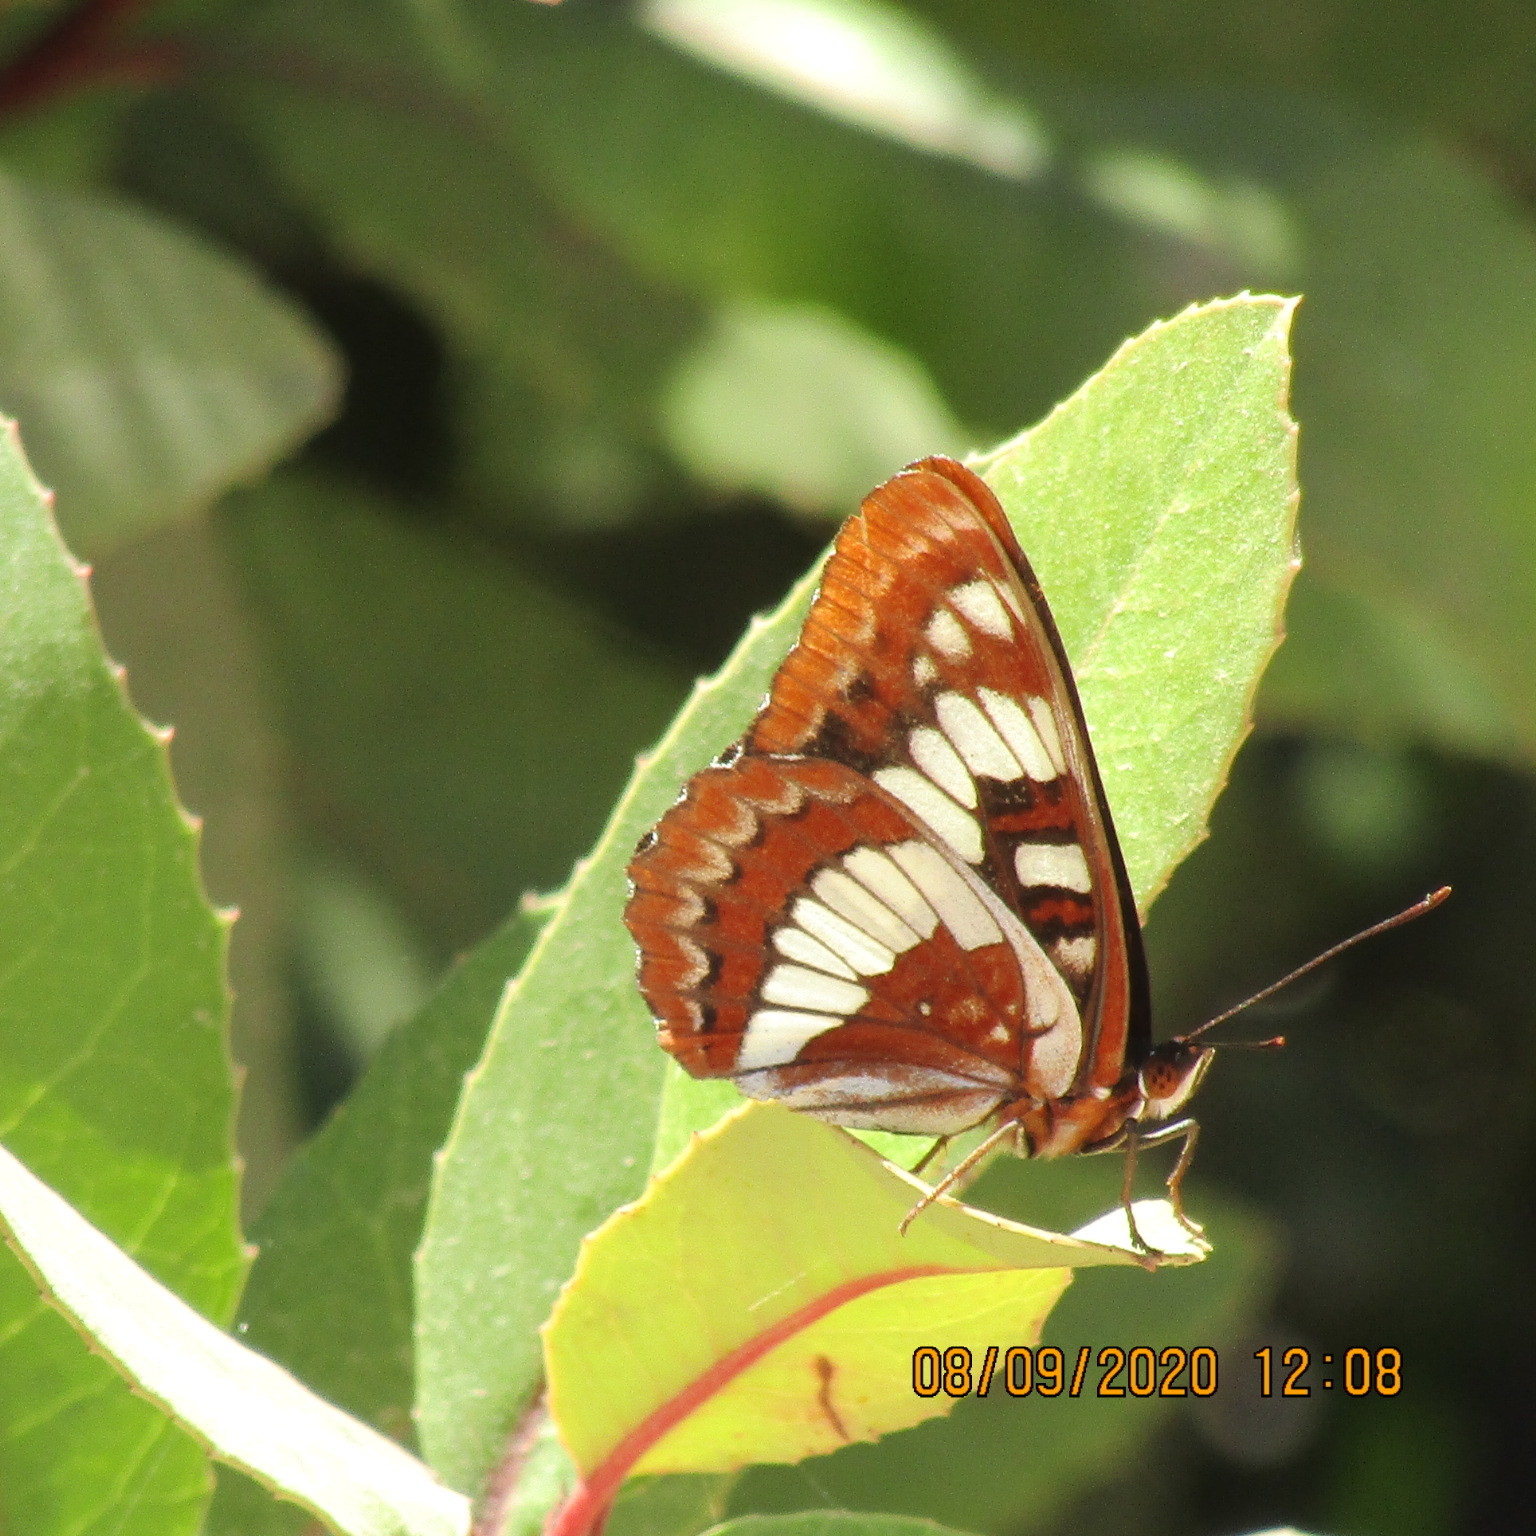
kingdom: Animalia
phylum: Arthropoda
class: Insecta
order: Lepidoptera
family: Nymphalidae
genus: Limenitis
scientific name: Limenitis lorquini
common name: Lorquin's admiral
